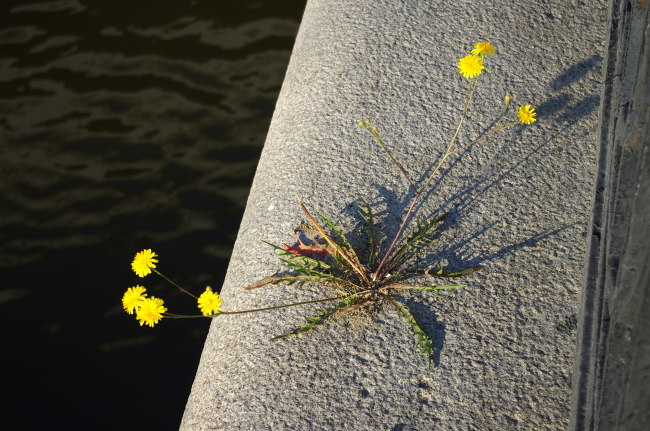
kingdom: Plantae
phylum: Tracheophyta
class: Magnoliopsida
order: Asterales
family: Asteraceae
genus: Scorzoneroides
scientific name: Scorzoneroides autumnalis
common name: Autumn hawkbit
